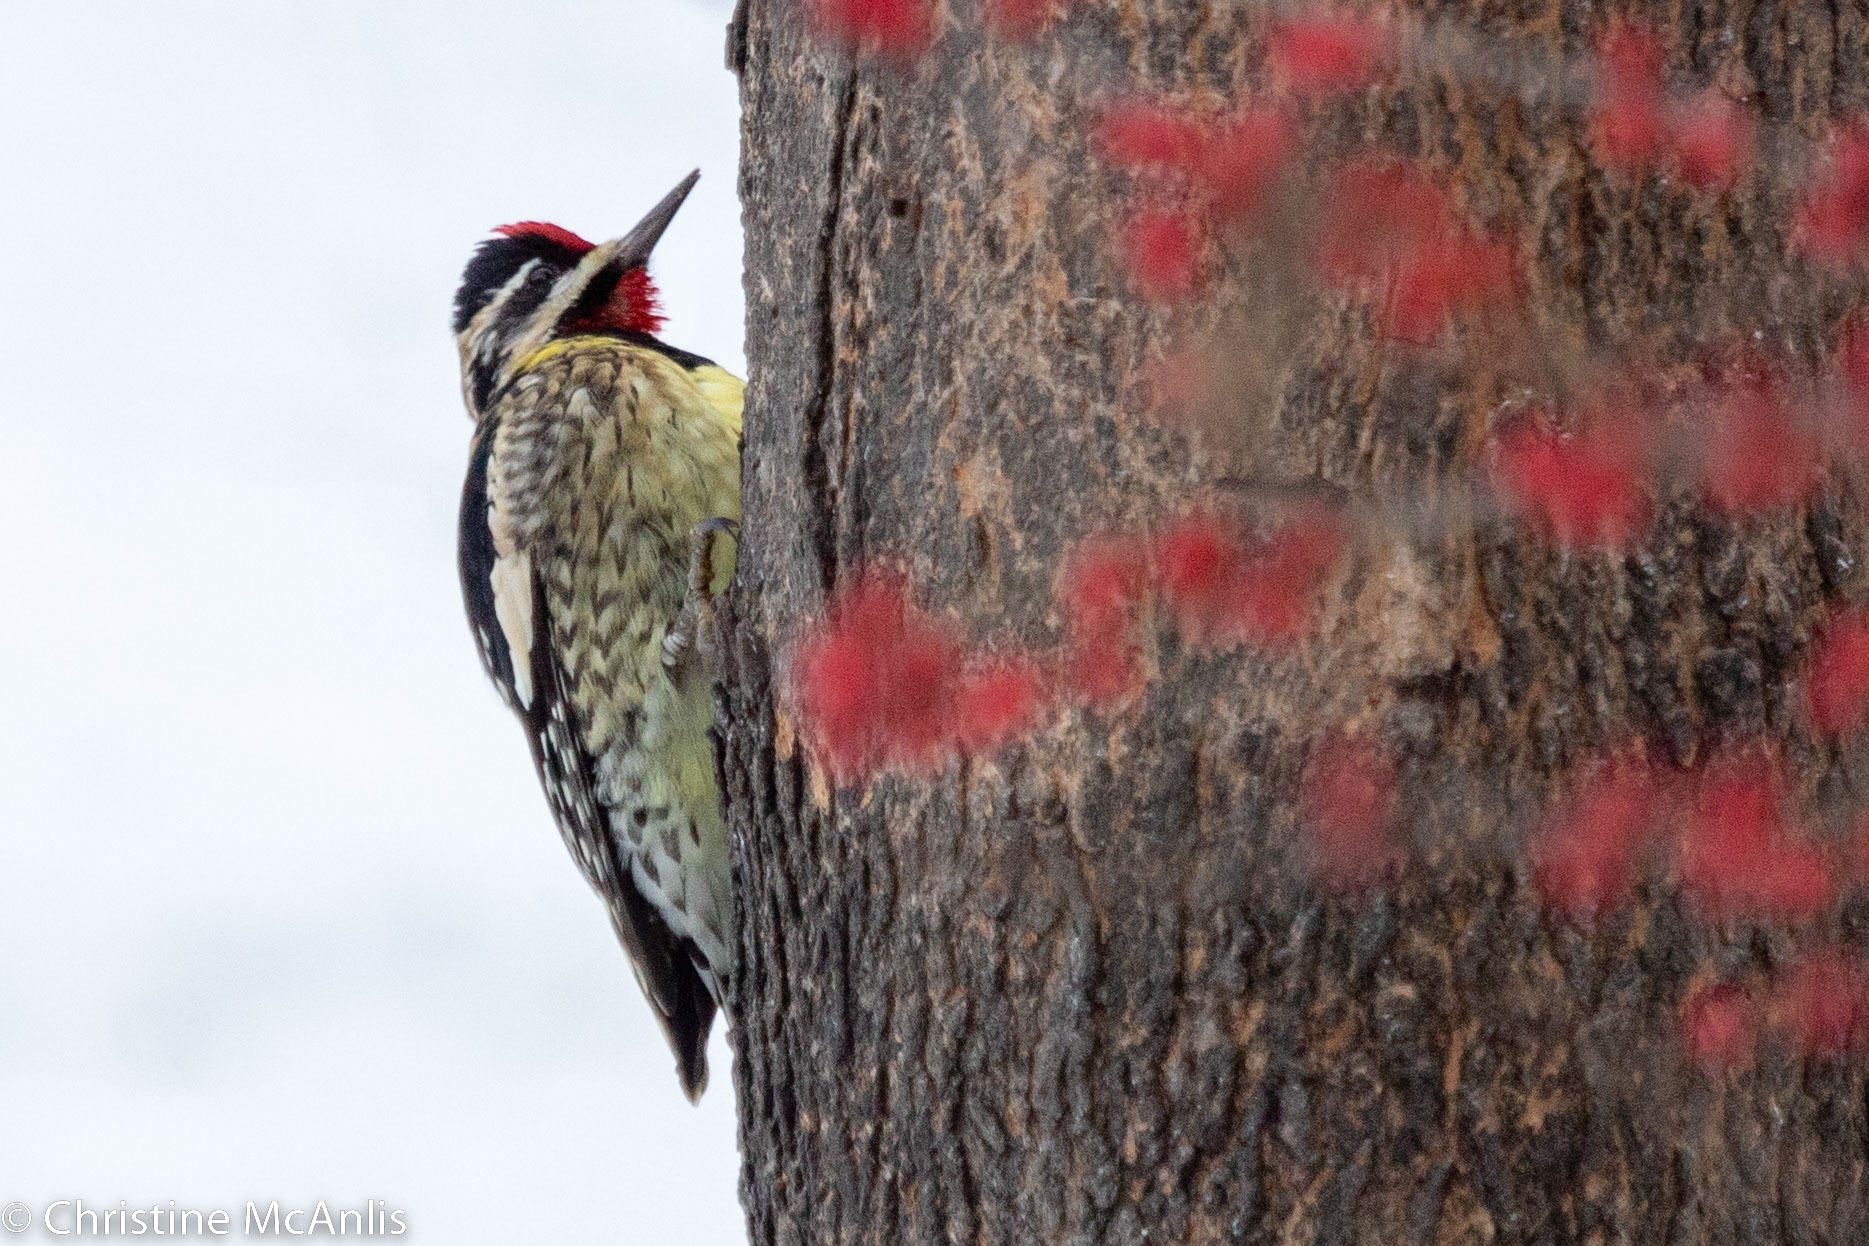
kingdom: Animalia
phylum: Chordata
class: Aves
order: Piciformes
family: Picidae
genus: Sphyrapicus
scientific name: Sphyrapicus varius
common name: Yellow-bellied sapsucker
